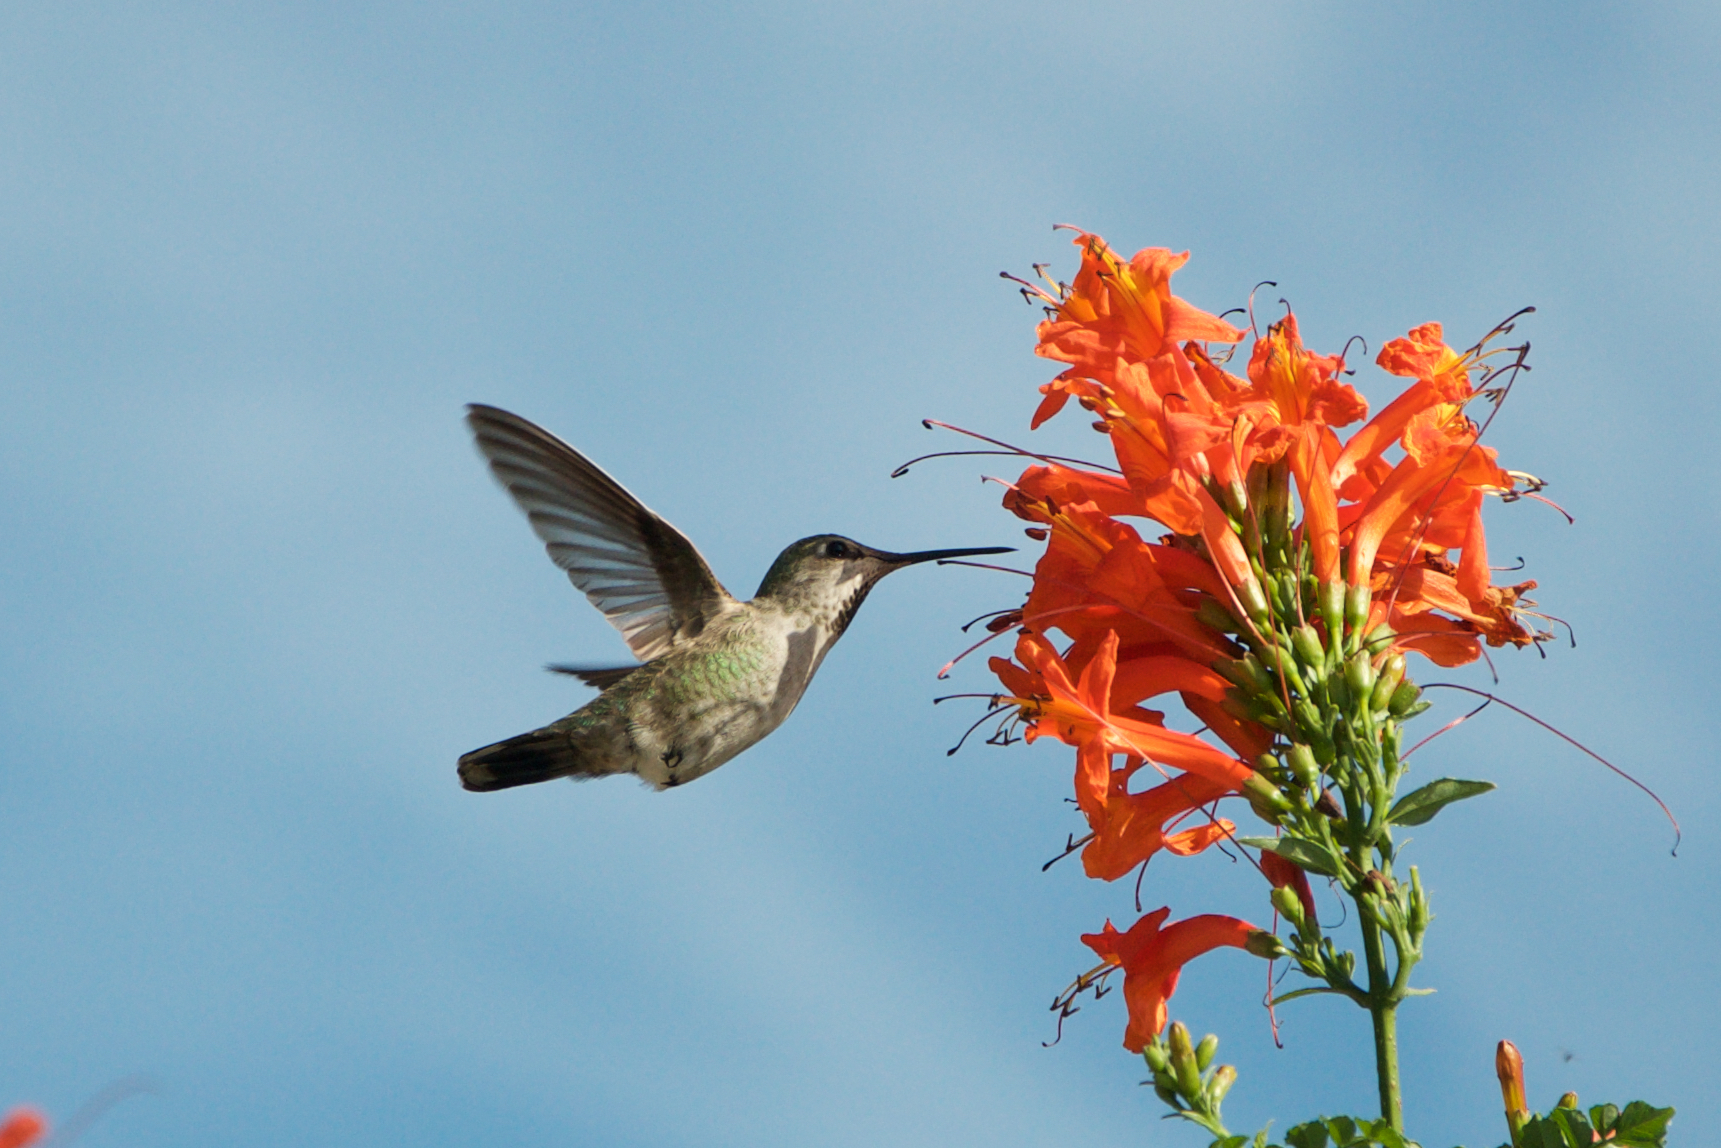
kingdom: Animalia
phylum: Chordata
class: Aves
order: Apodiformes
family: Trochilidae
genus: Calypte
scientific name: Calypte anna
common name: Anna's hummingbird
